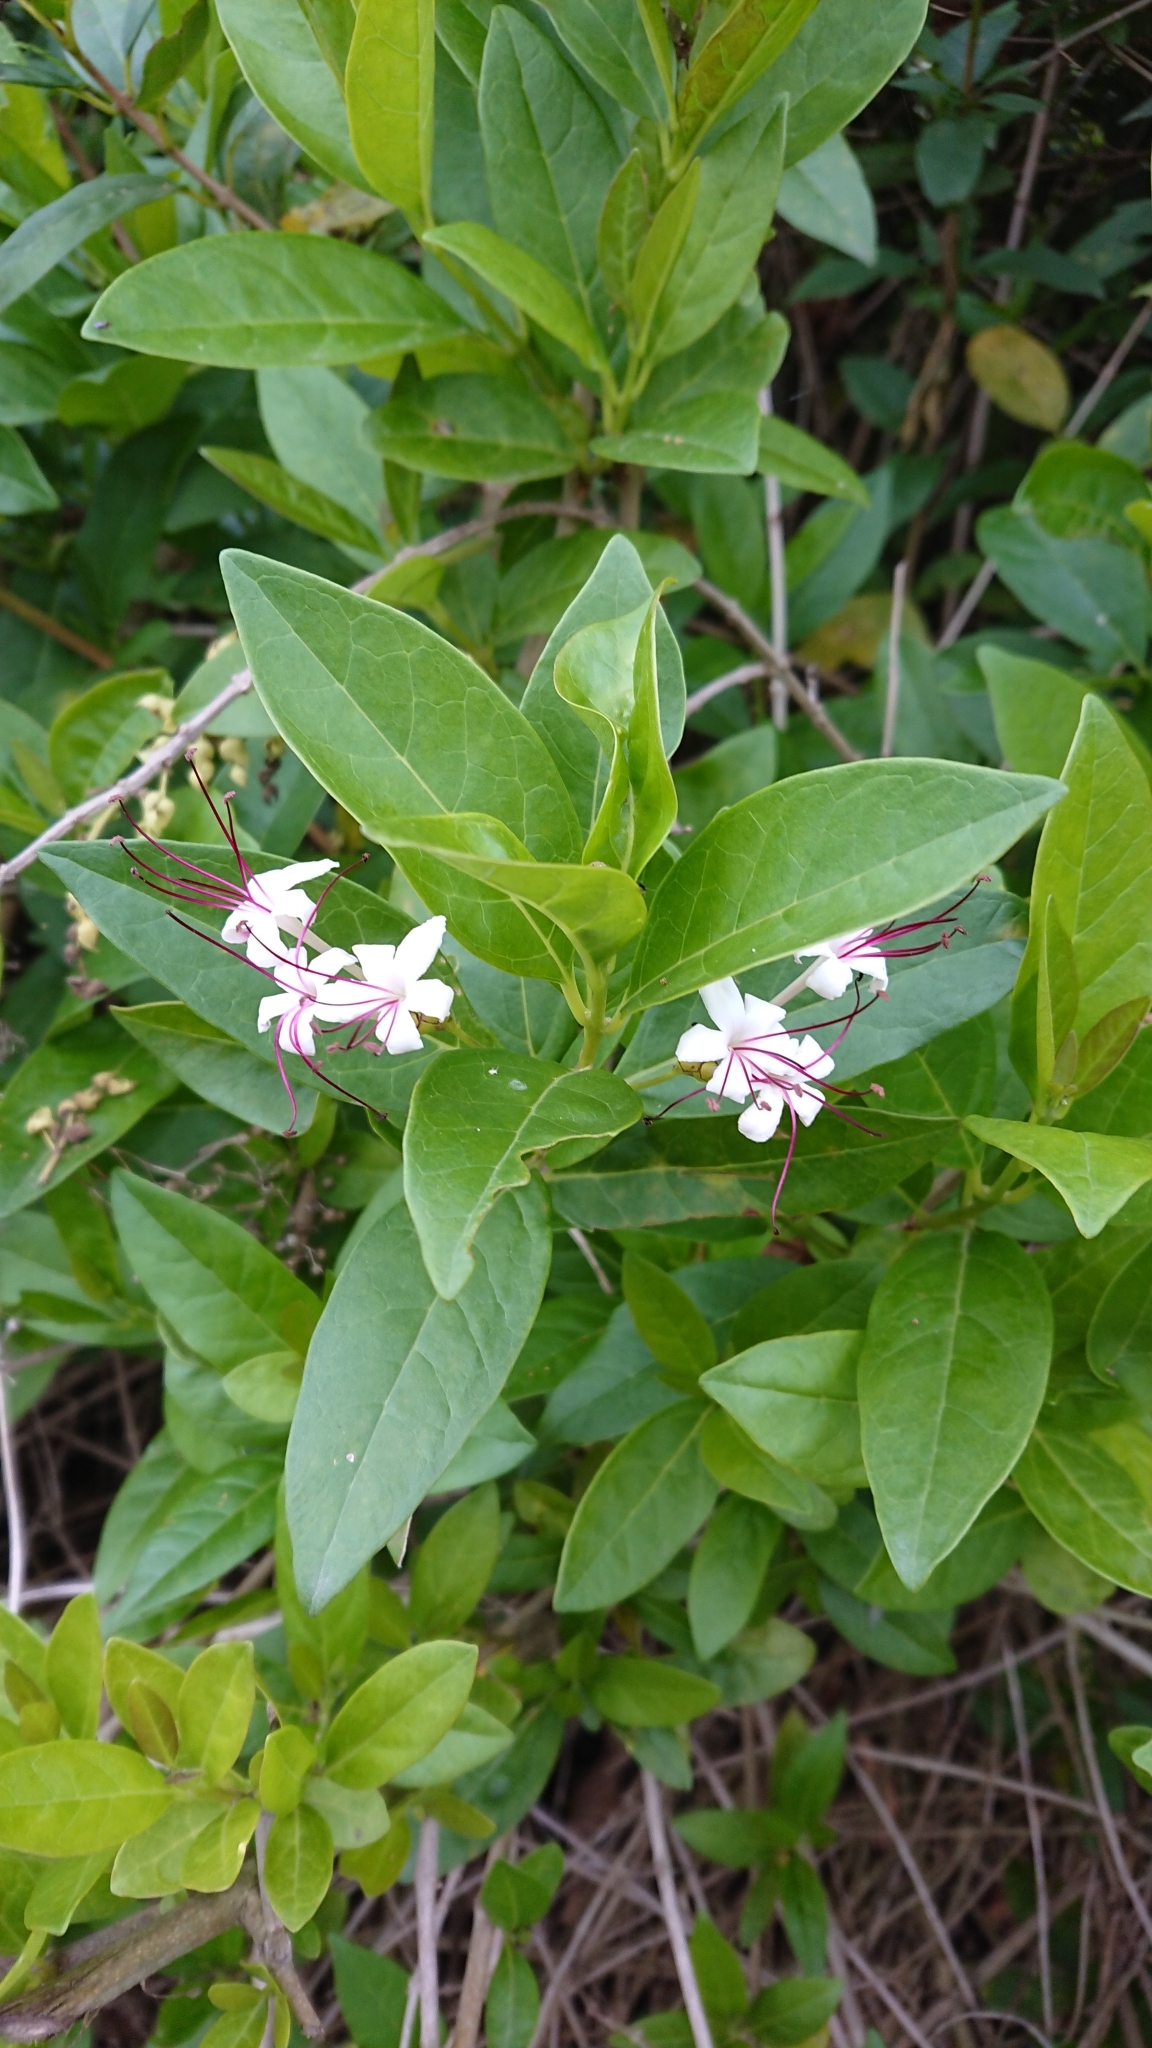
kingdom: Plantae
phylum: Tracheophyta
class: Magnoliopsida
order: Lamiales
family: Lamiaceae
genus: Volkameria
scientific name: Volkameria inermis
